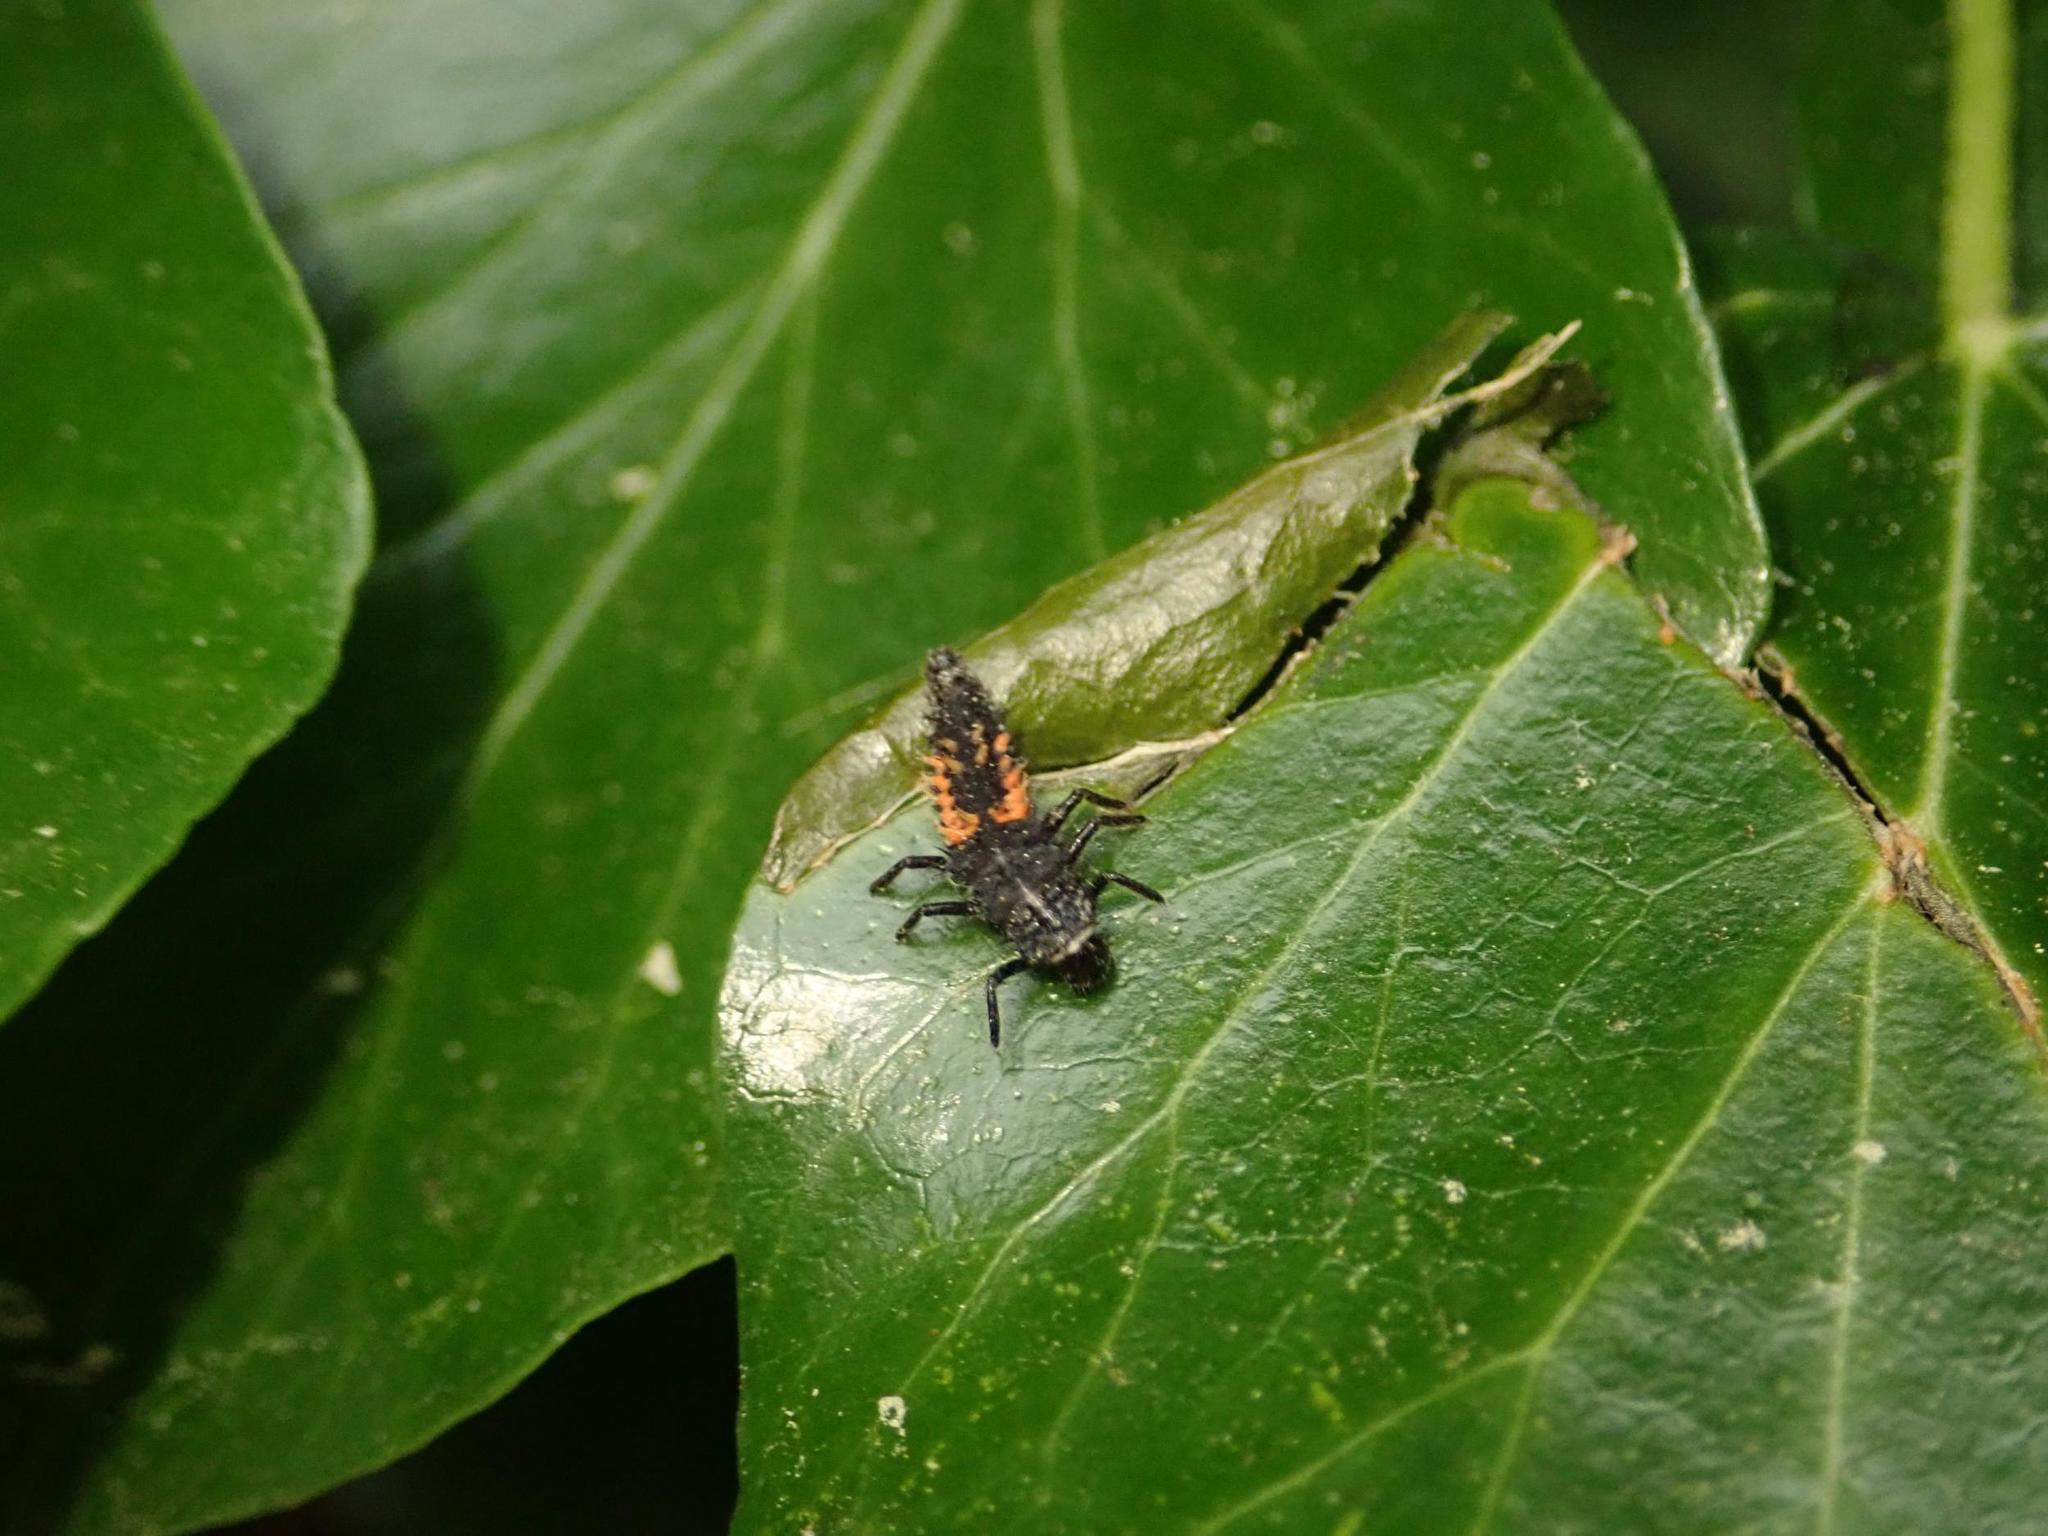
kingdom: Animalia
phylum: Arthropoda
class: Insecta
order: Coleoptera
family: Coccinellidae
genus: Harmonia
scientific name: Harmonia axyridis
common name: Harlequin ladybird
